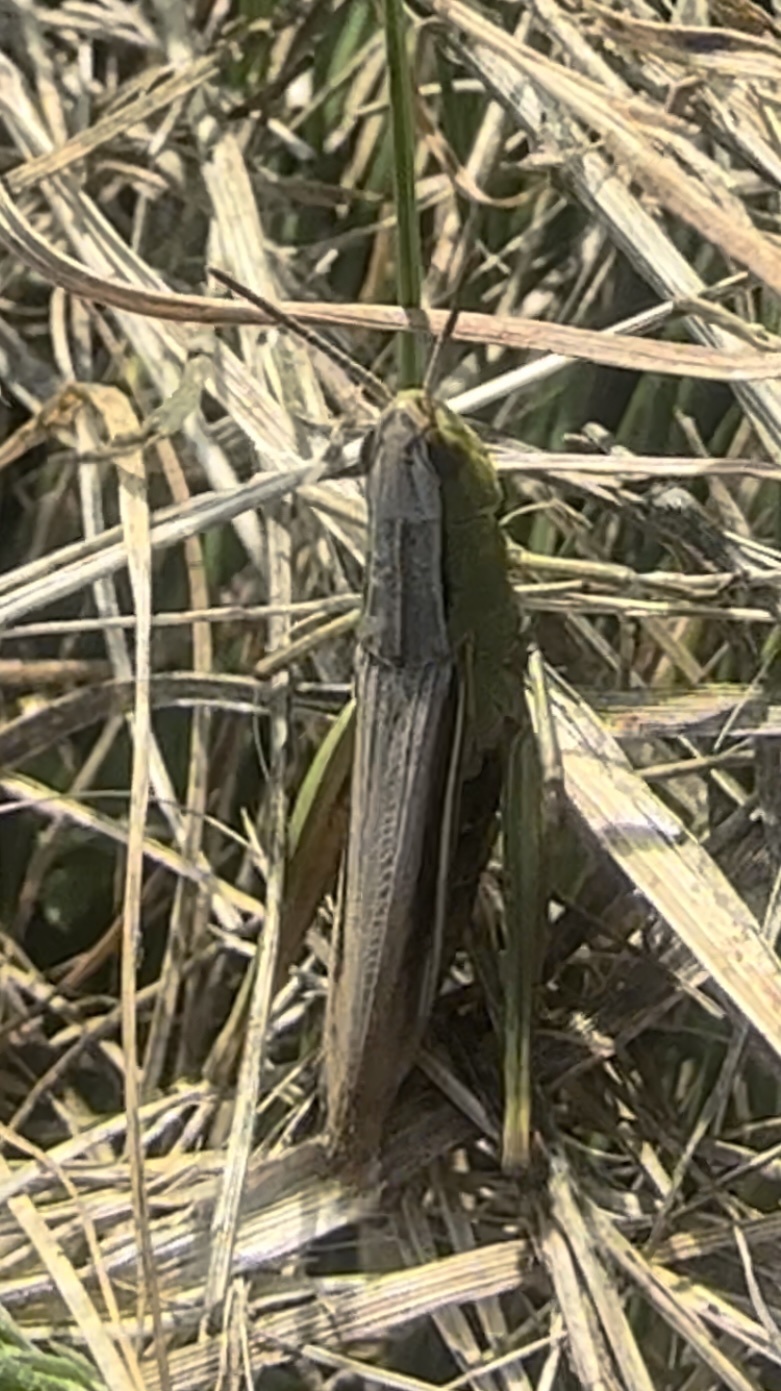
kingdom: Animalia
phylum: Arthropoda
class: Insecta
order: Orthoptera
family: Acrididae
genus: Chorthippus
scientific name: Chorthippus albomarginatus
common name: Lesser marsh grasshopper
